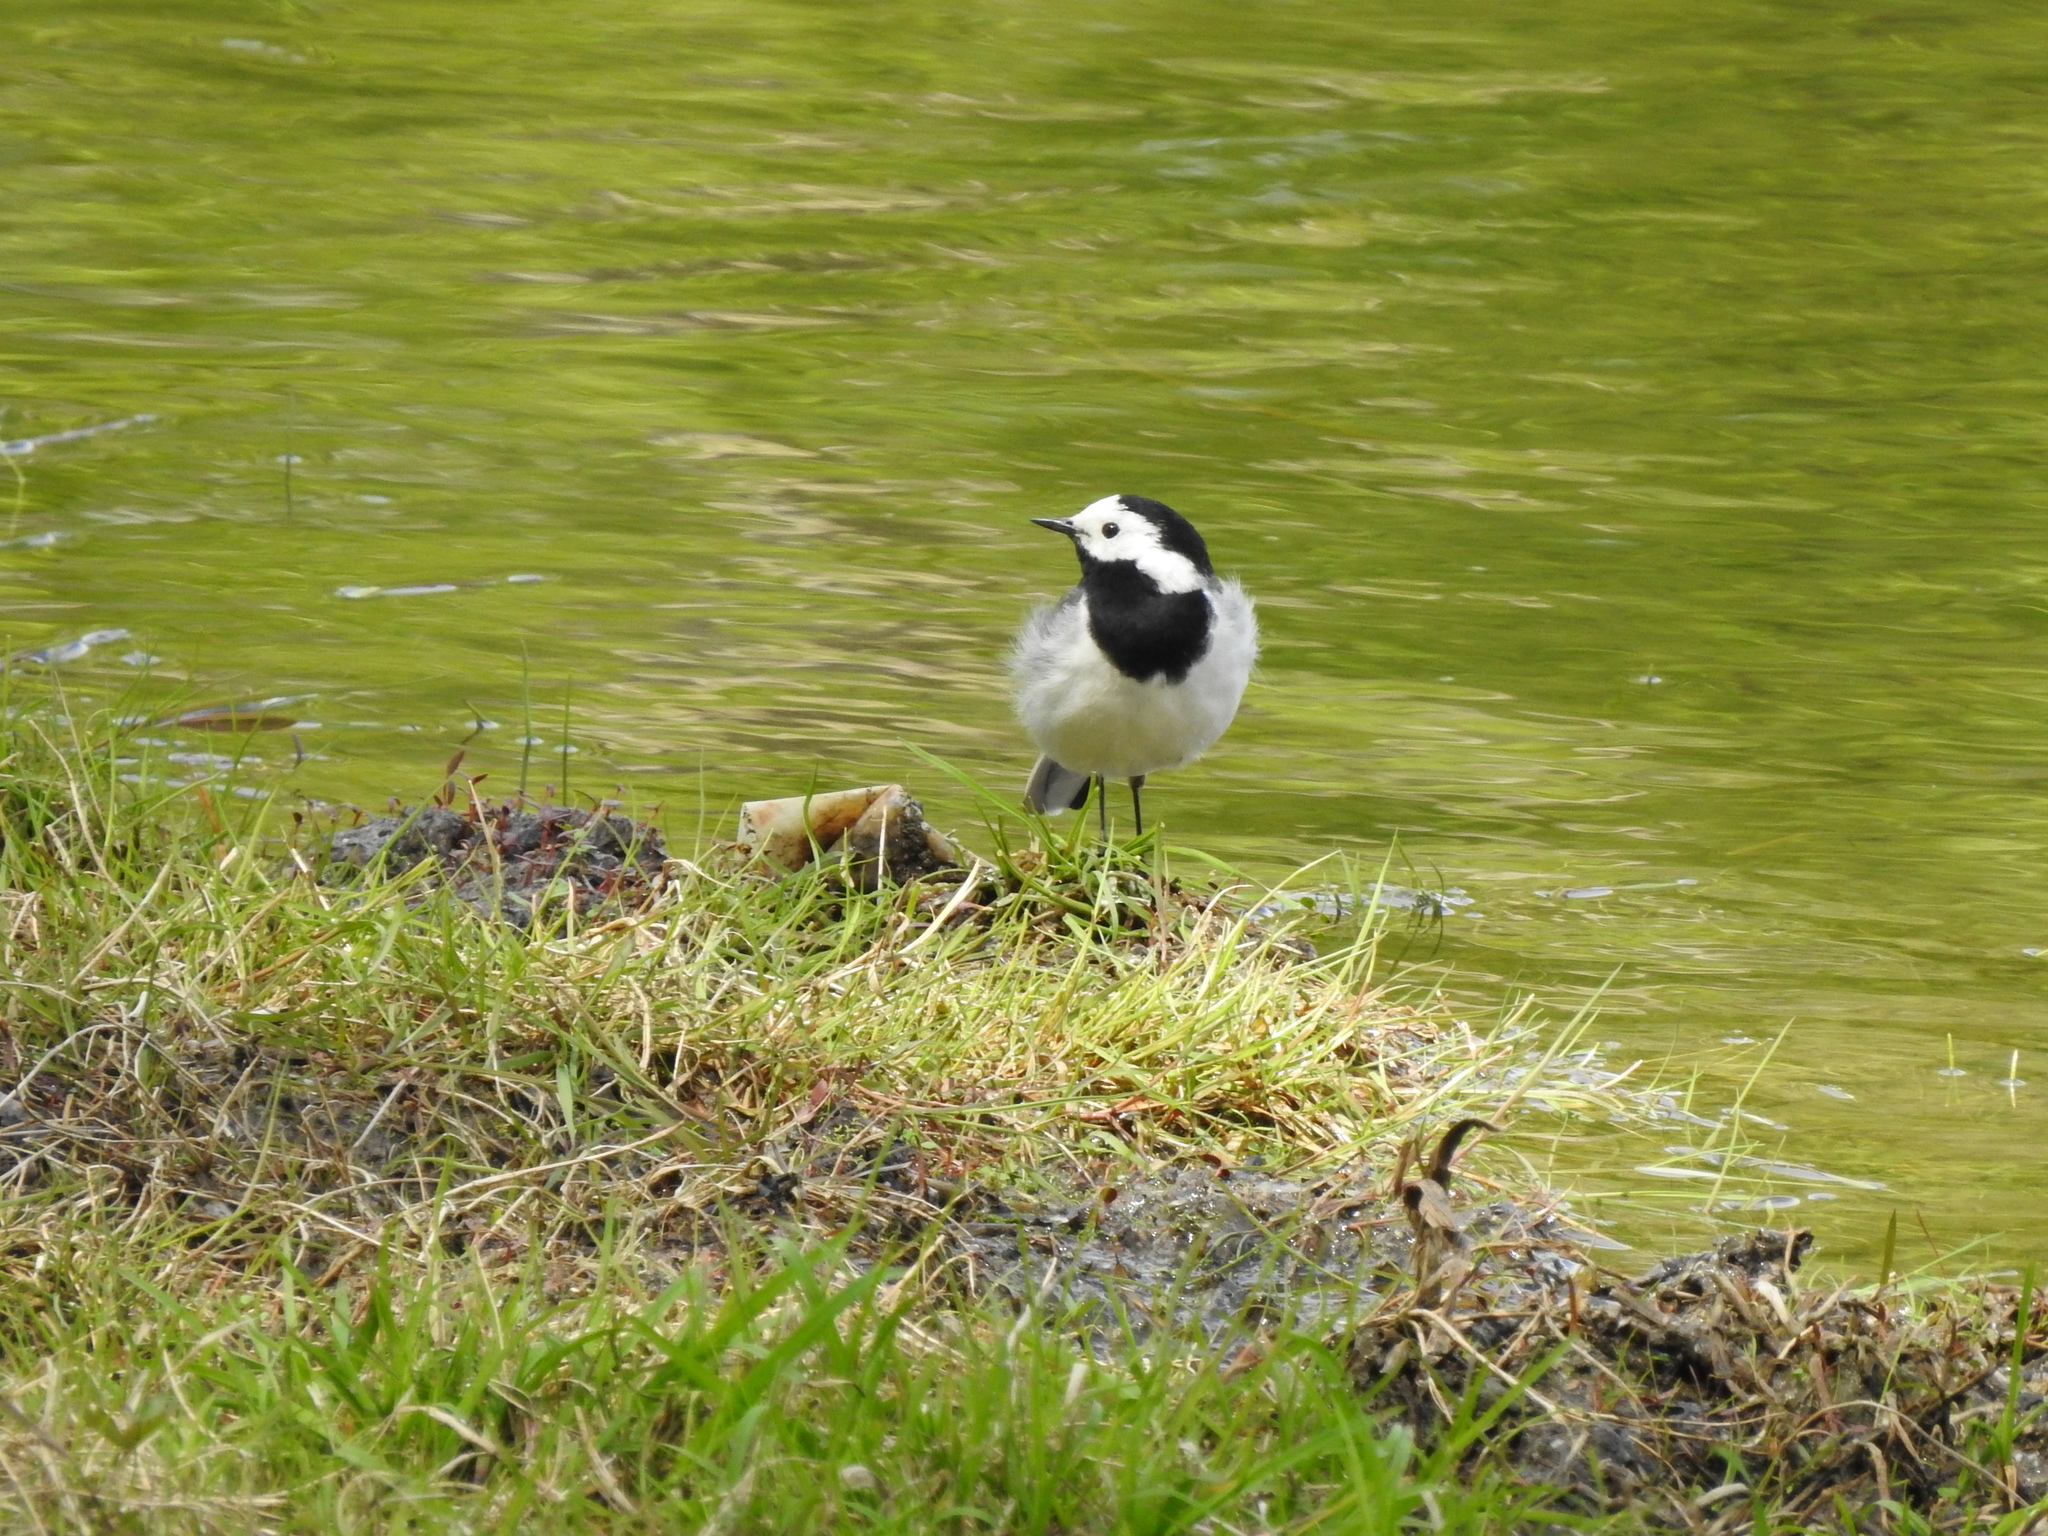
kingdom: Animalia
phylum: Chordata
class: Aves
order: Passeriformes
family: Motacillidae
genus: Motacilla
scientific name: Motacilla alba
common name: White wagtail
